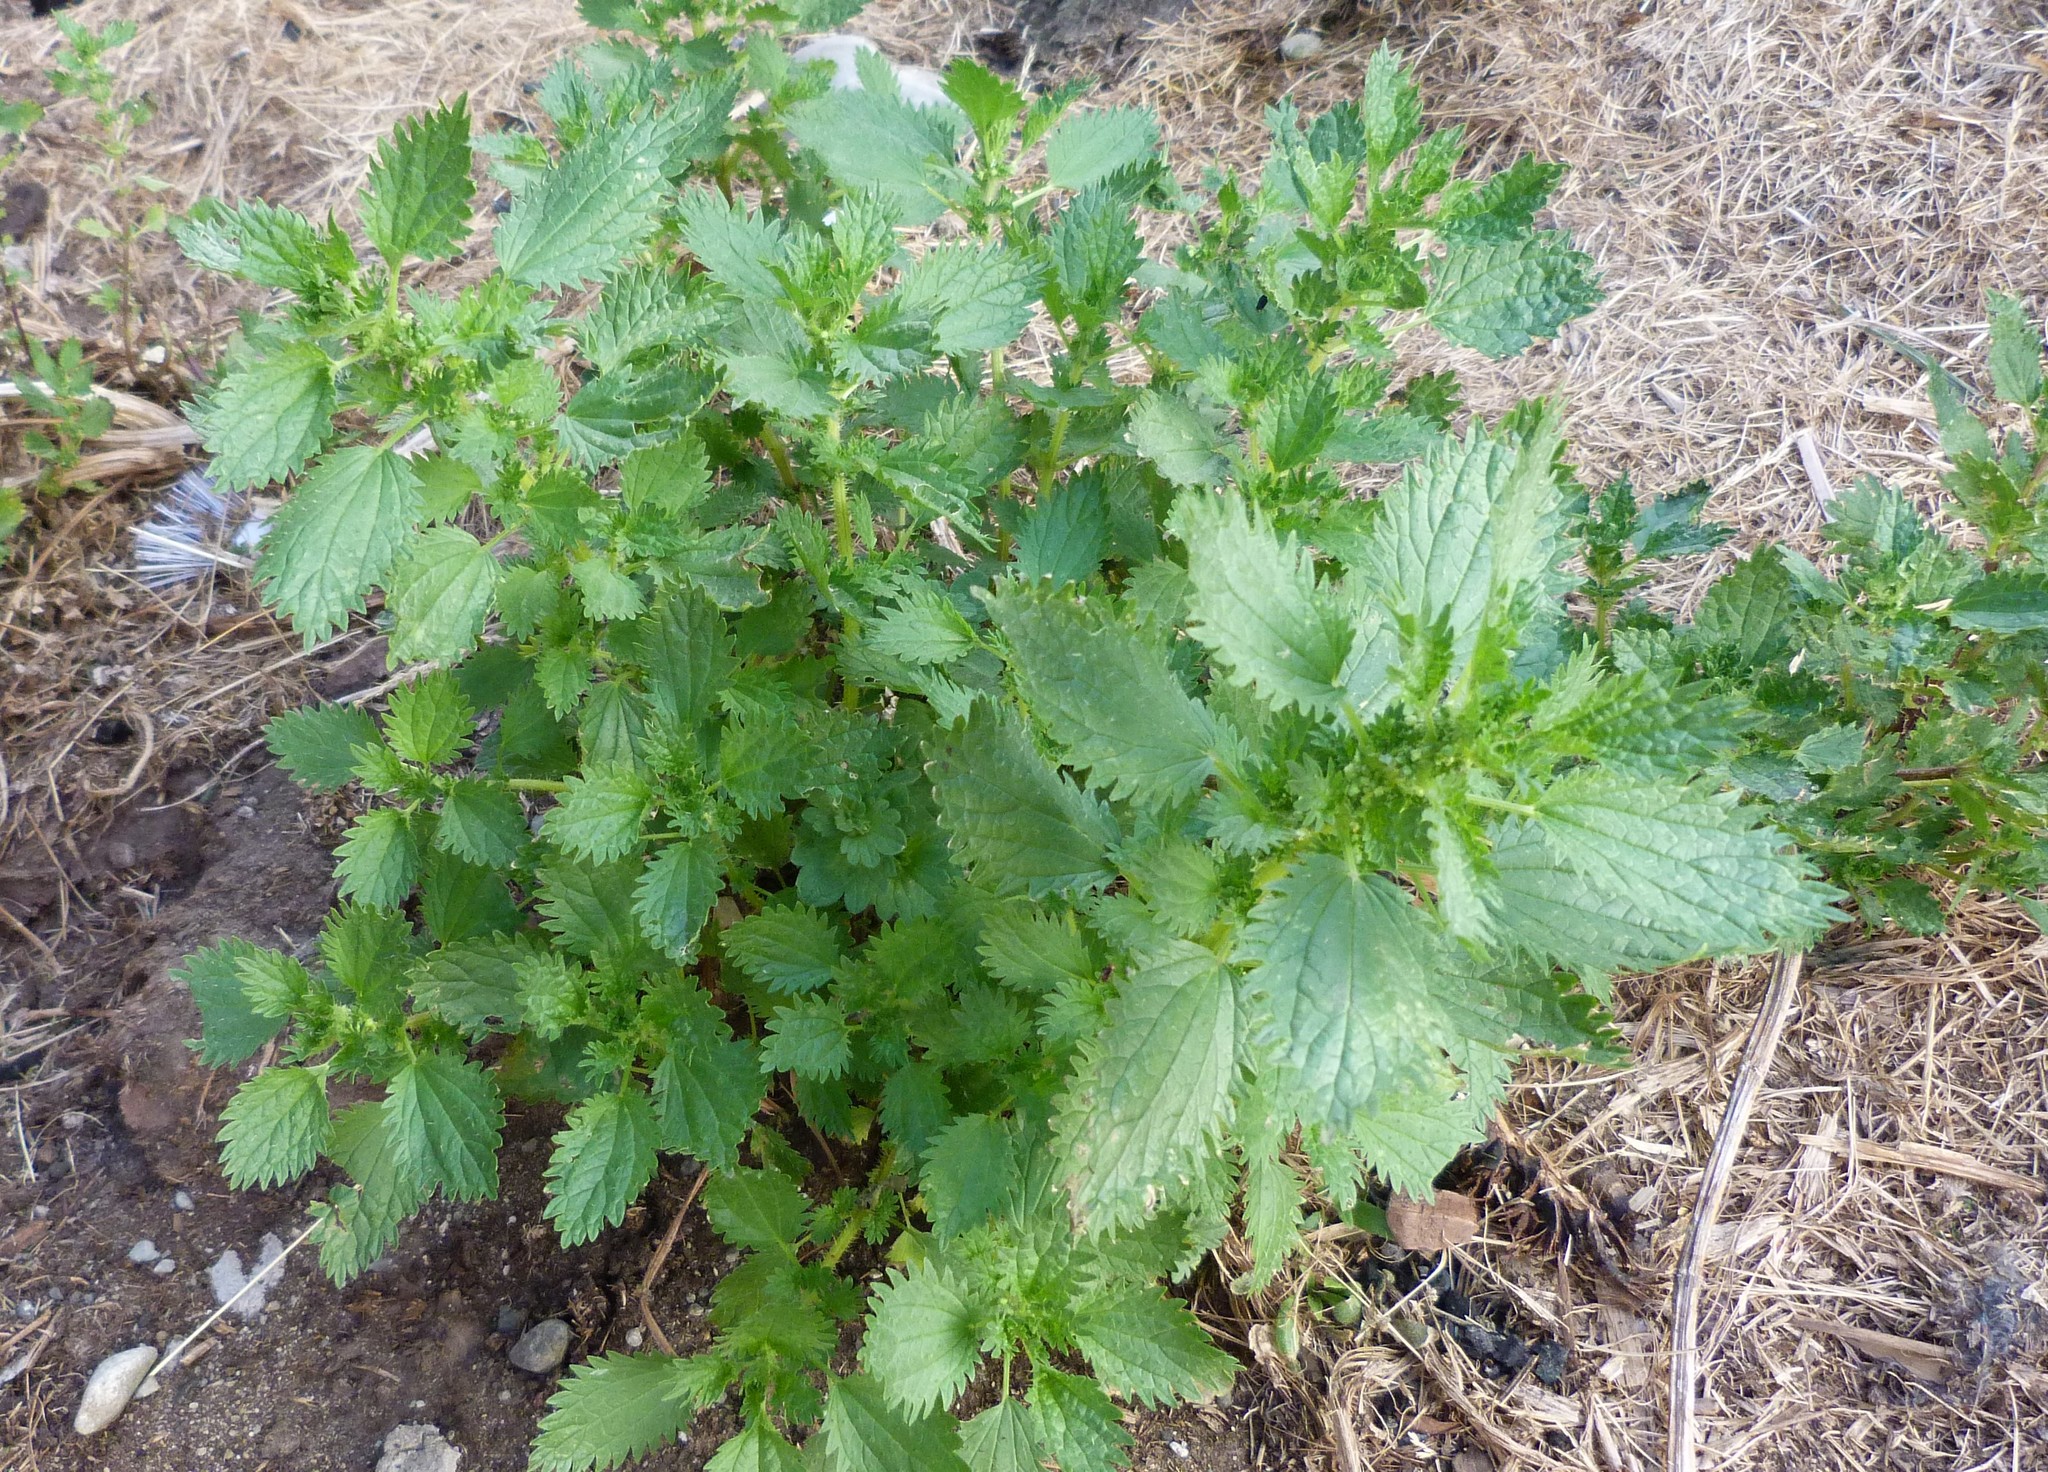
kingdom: Plantae
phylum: Tracheophyta
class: Magnoliopsida
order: Rosales
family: Urticaceae
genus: Urtica
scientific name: Urtica urens
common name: Dwarf nettle
